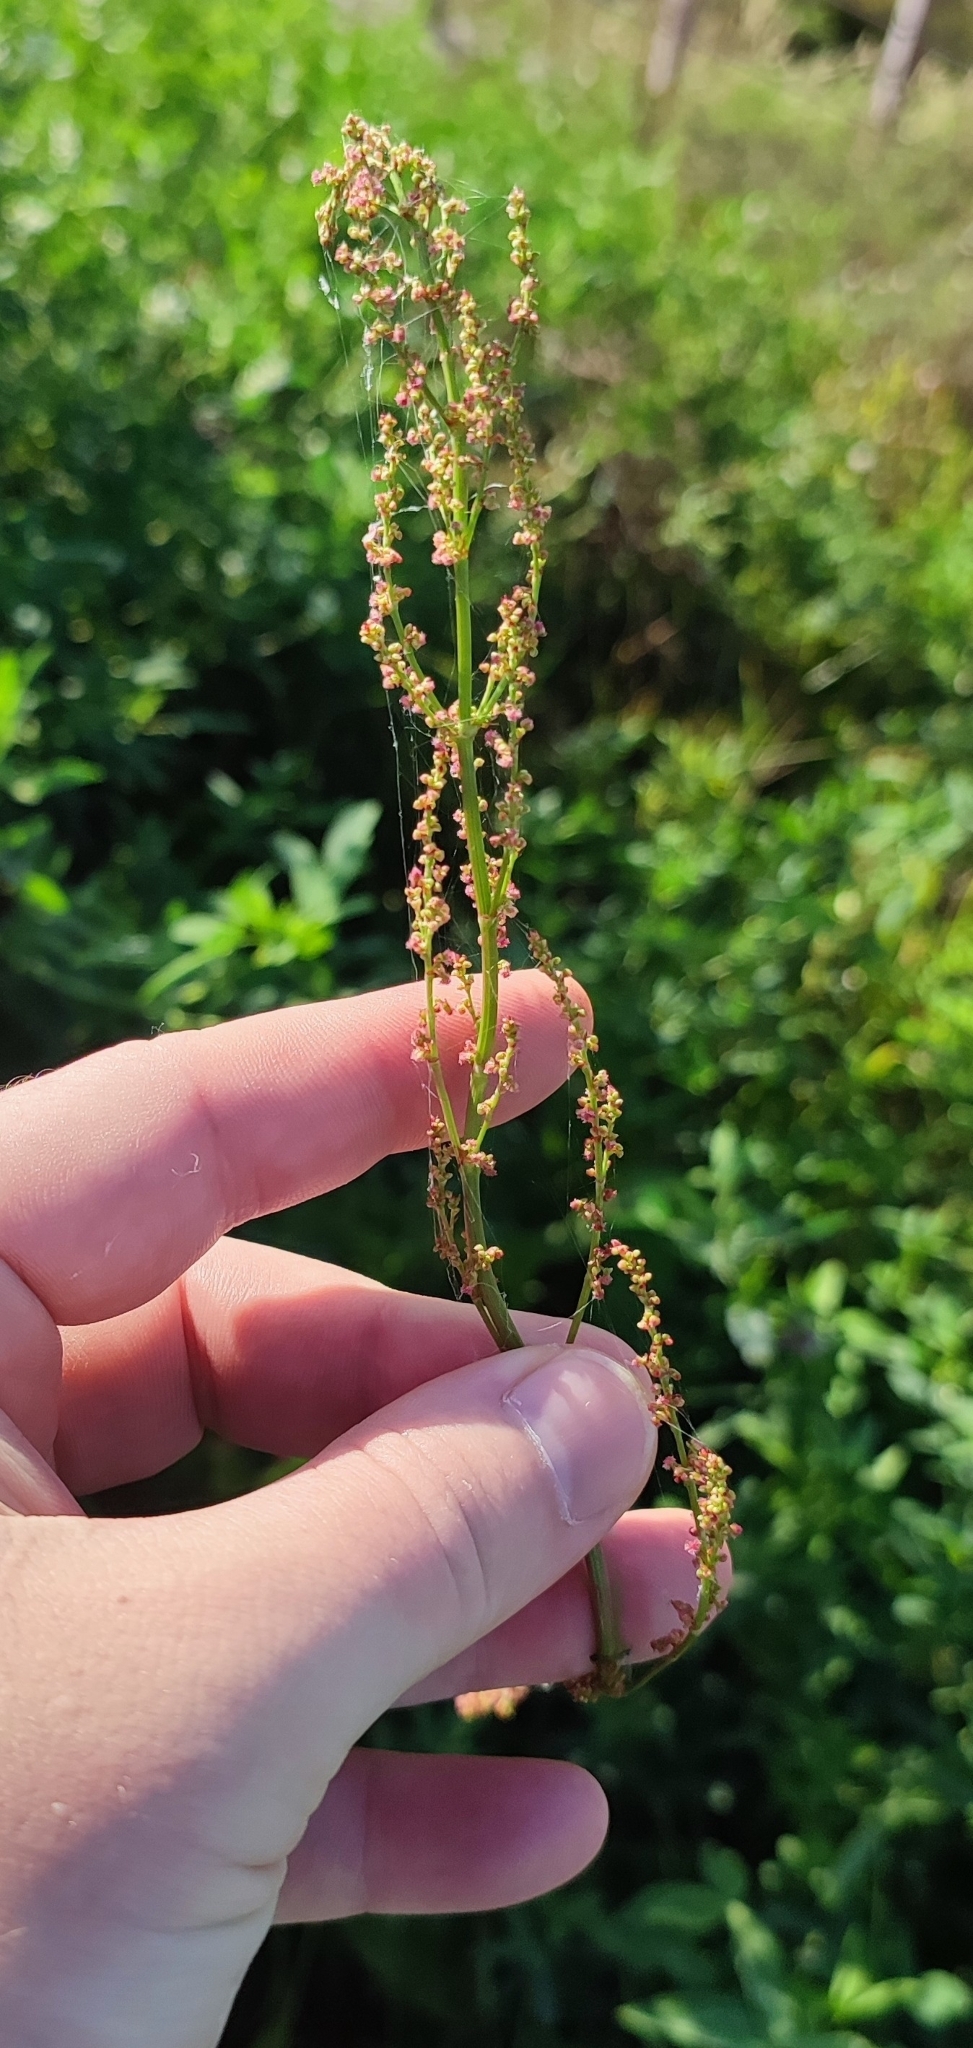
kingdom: Plantae
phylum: Tracheophyta
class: Magnoliopsida
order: Caryophyllales
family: Polygonaceae
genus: Rumex
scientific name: Rumex thyrsiflorus
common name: Garden sorrel
